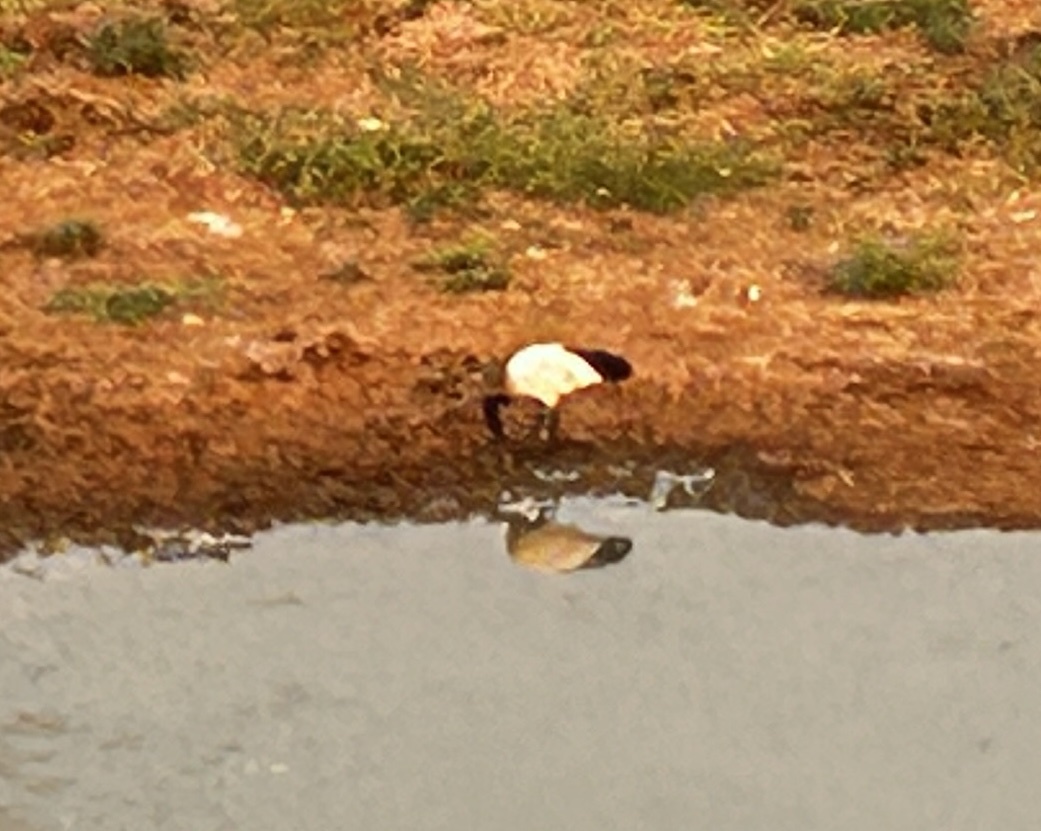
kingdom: Animalia
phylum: Chordata
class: Aves
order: Pelecaniformes
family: Threskiornithidae
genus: Threskiornis
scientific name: Threskiornis aethiopicus
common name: Sacred ibis
